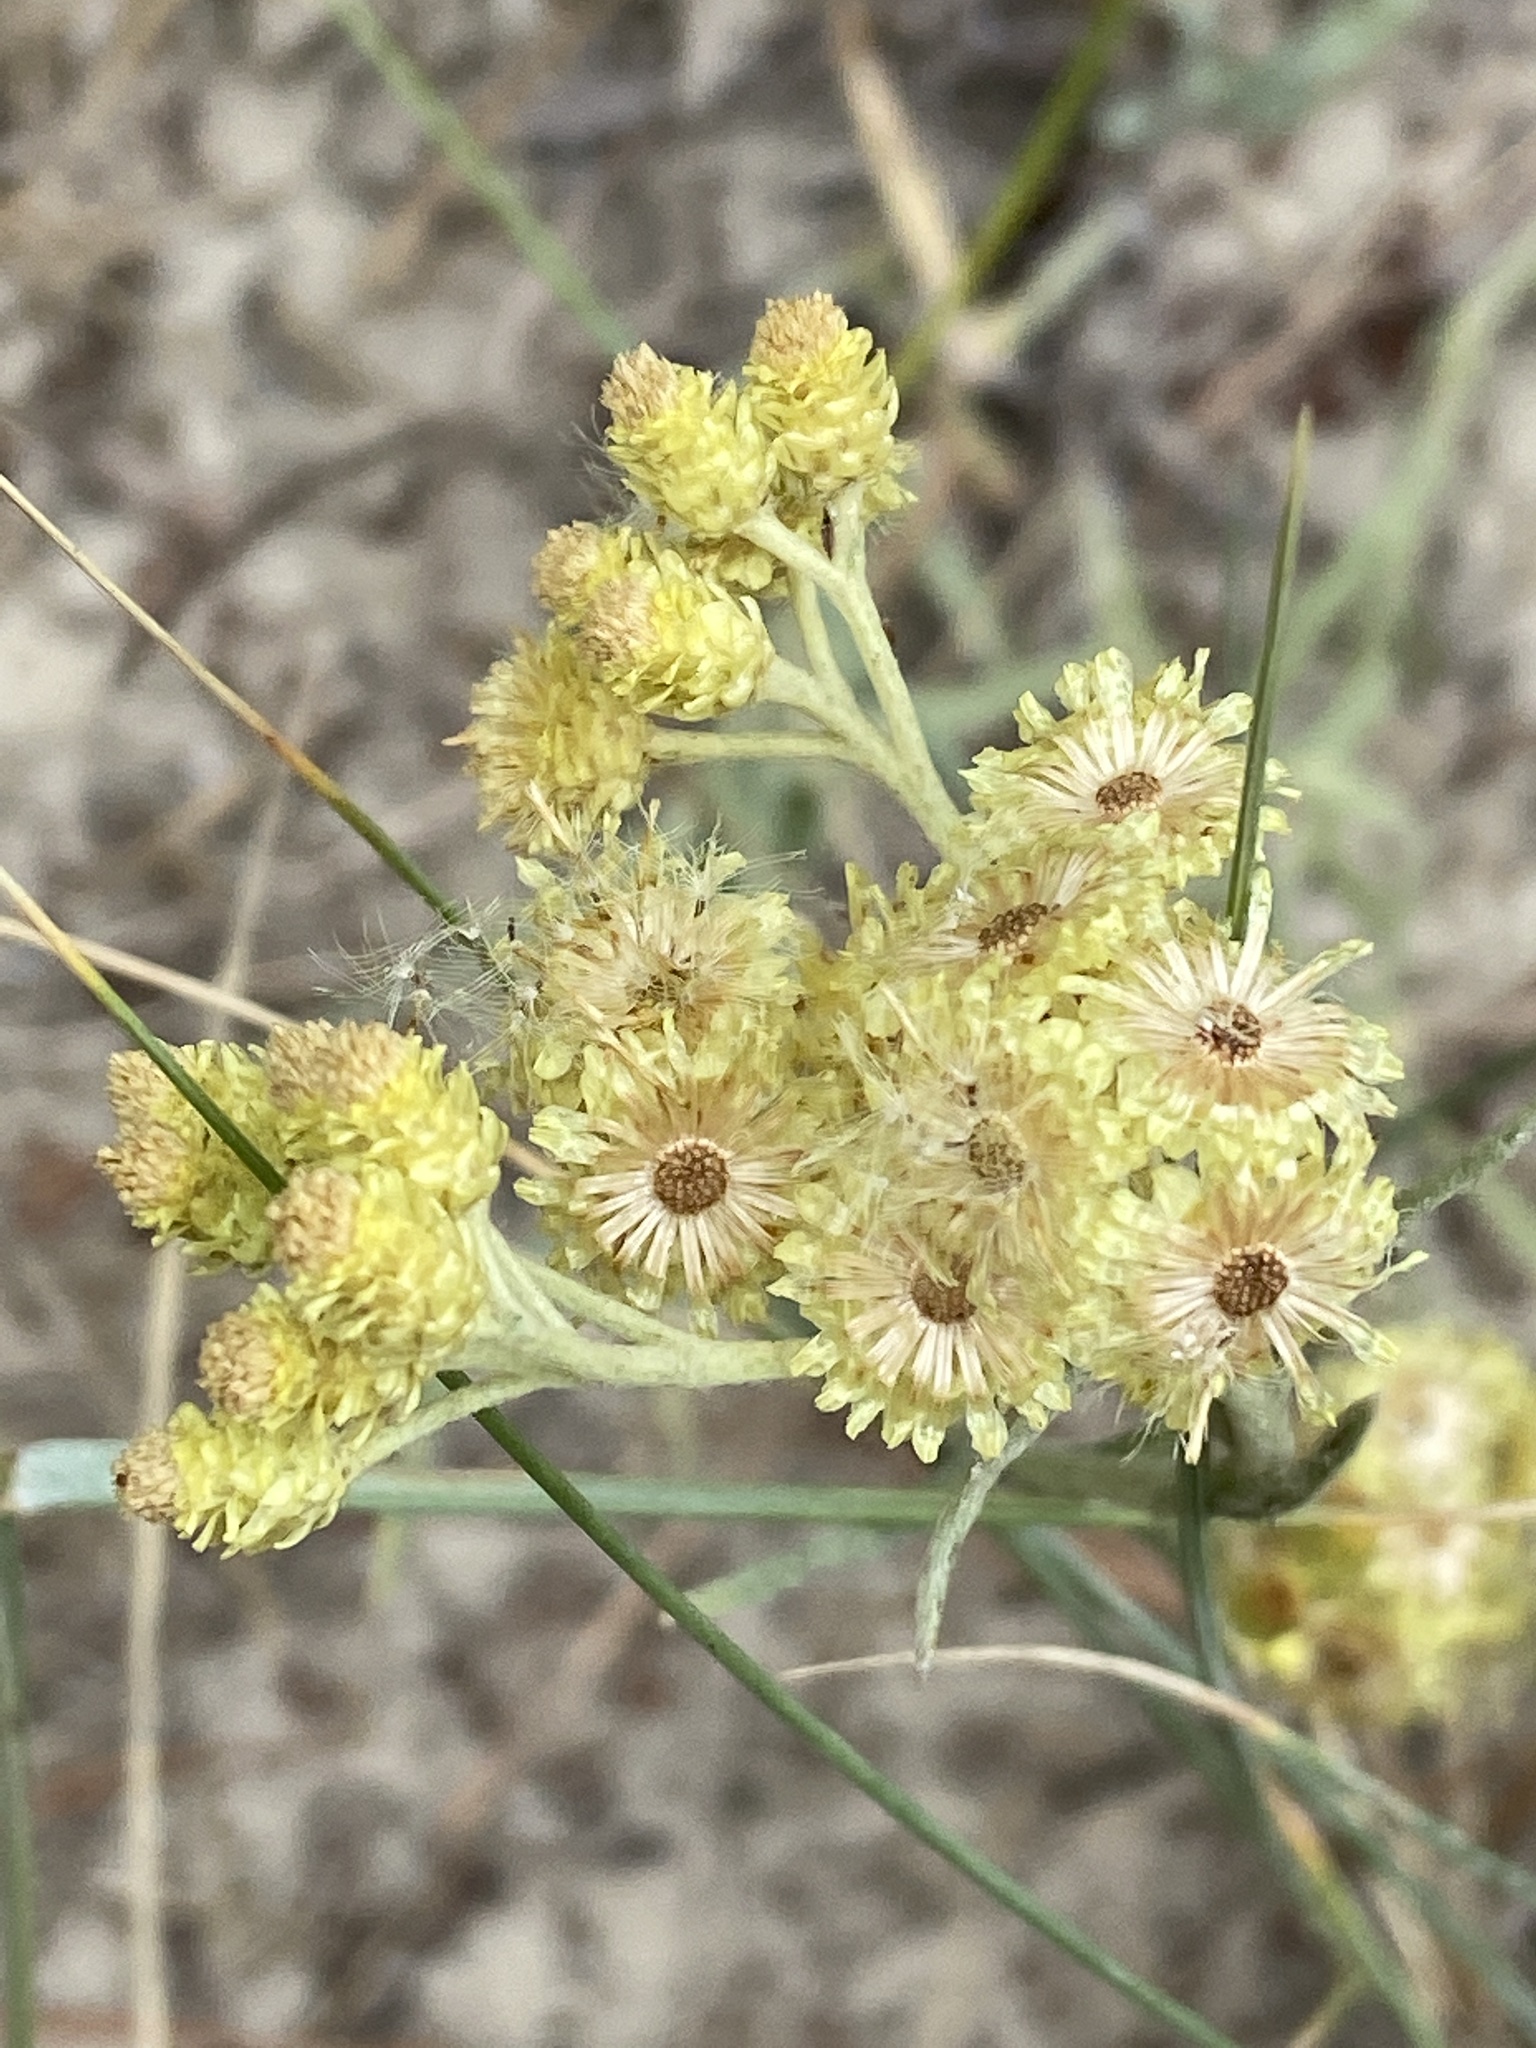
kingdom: Plantae
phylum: Tracheophyta
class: Magnoliopsida
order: Asterales
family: Asteraceae
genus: Helichrysum
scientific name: Helichrysum arenarium
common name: Strawflower
